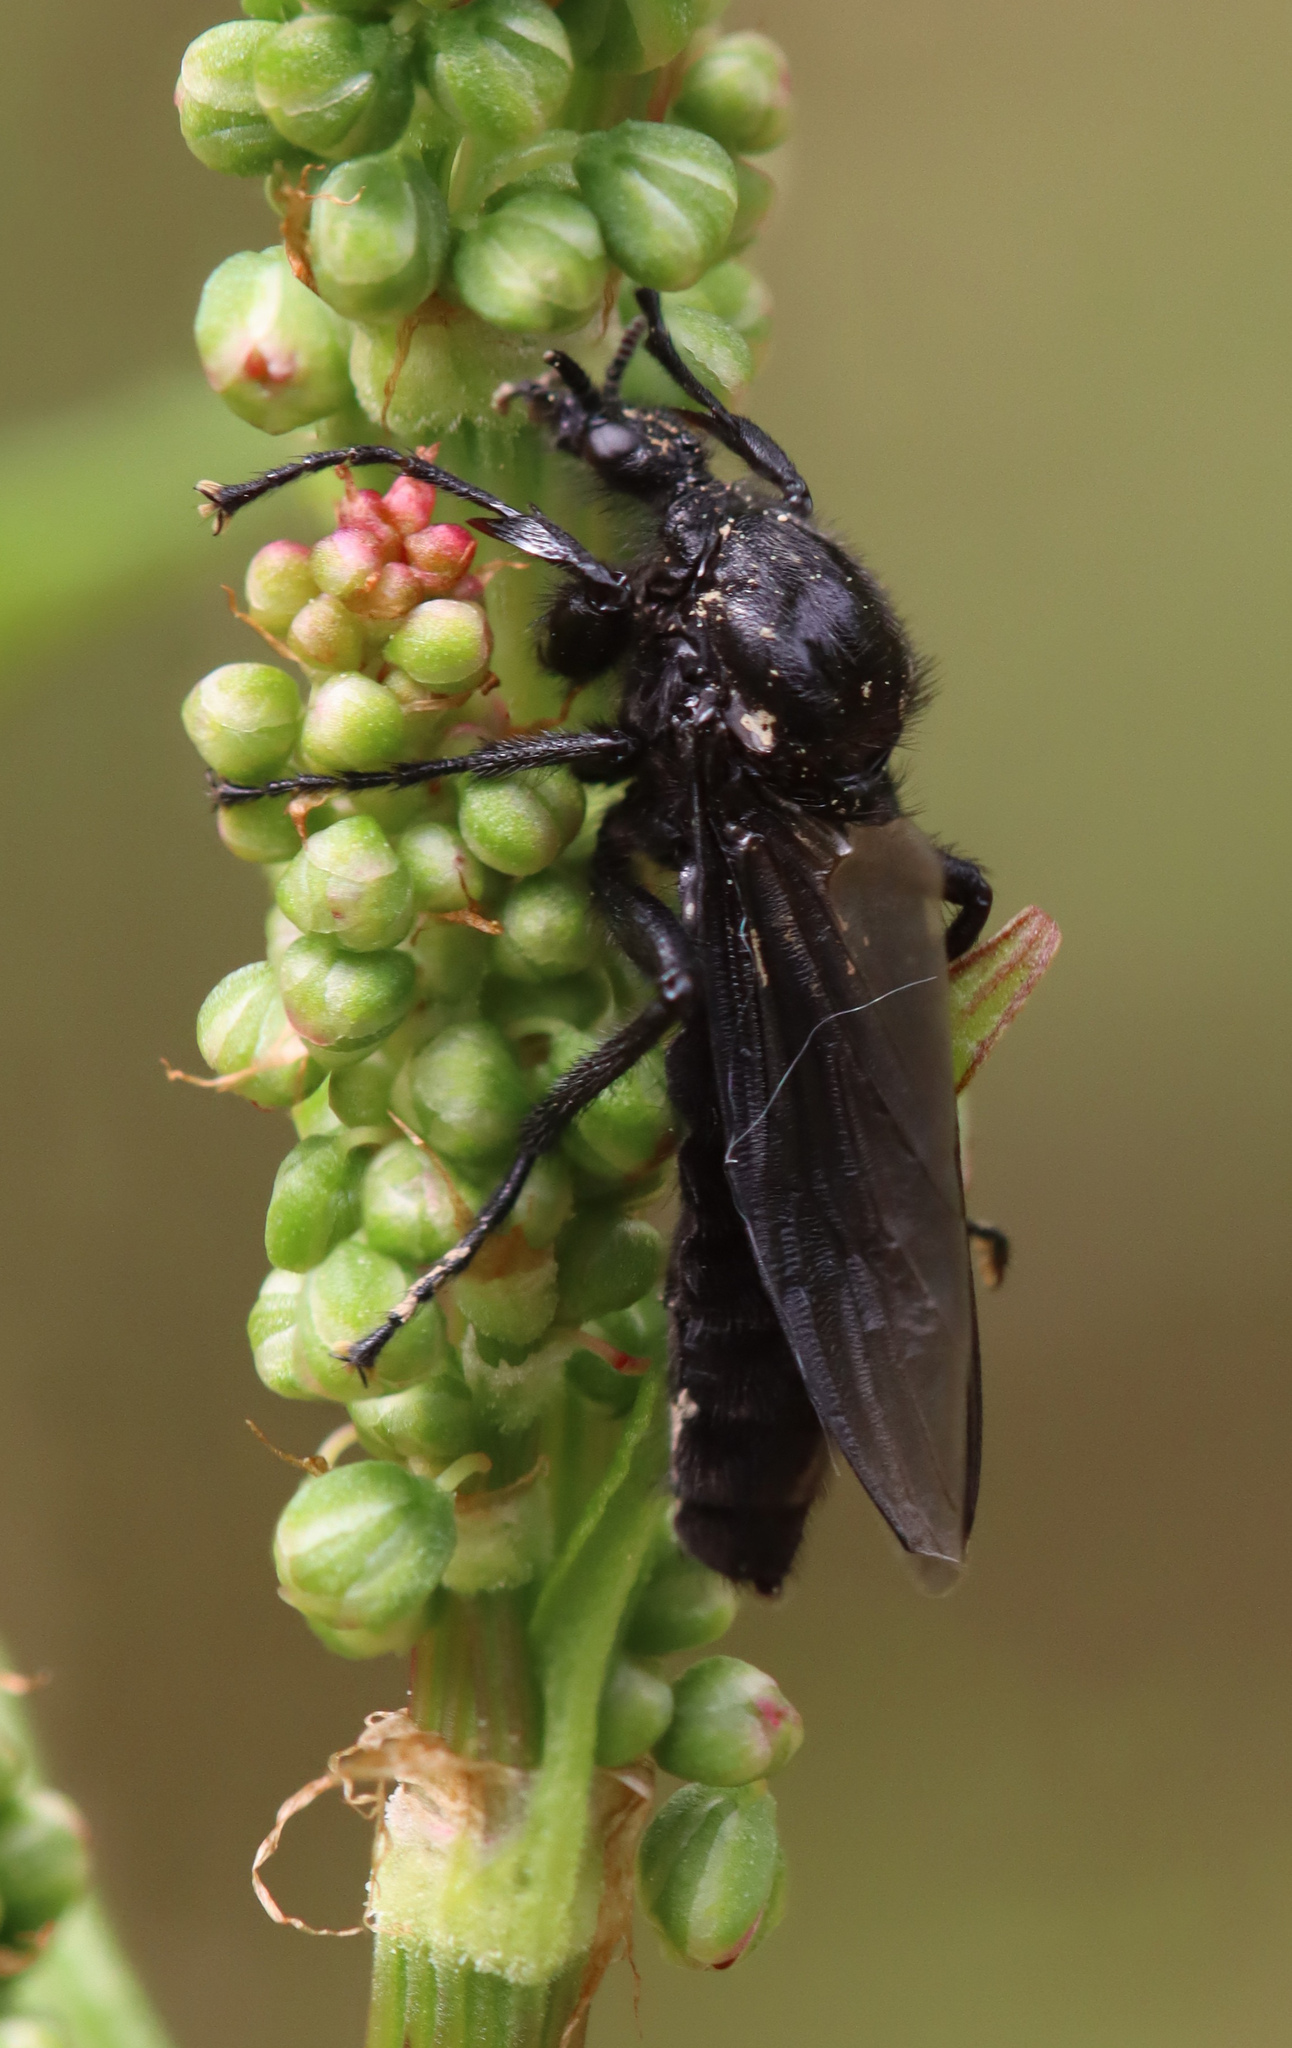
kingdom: Animalia
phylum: Arthropoda
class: Insecta
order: Diptera
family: Bibionidae
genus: Bibio
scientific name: Bibio marci
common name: St marks fly
